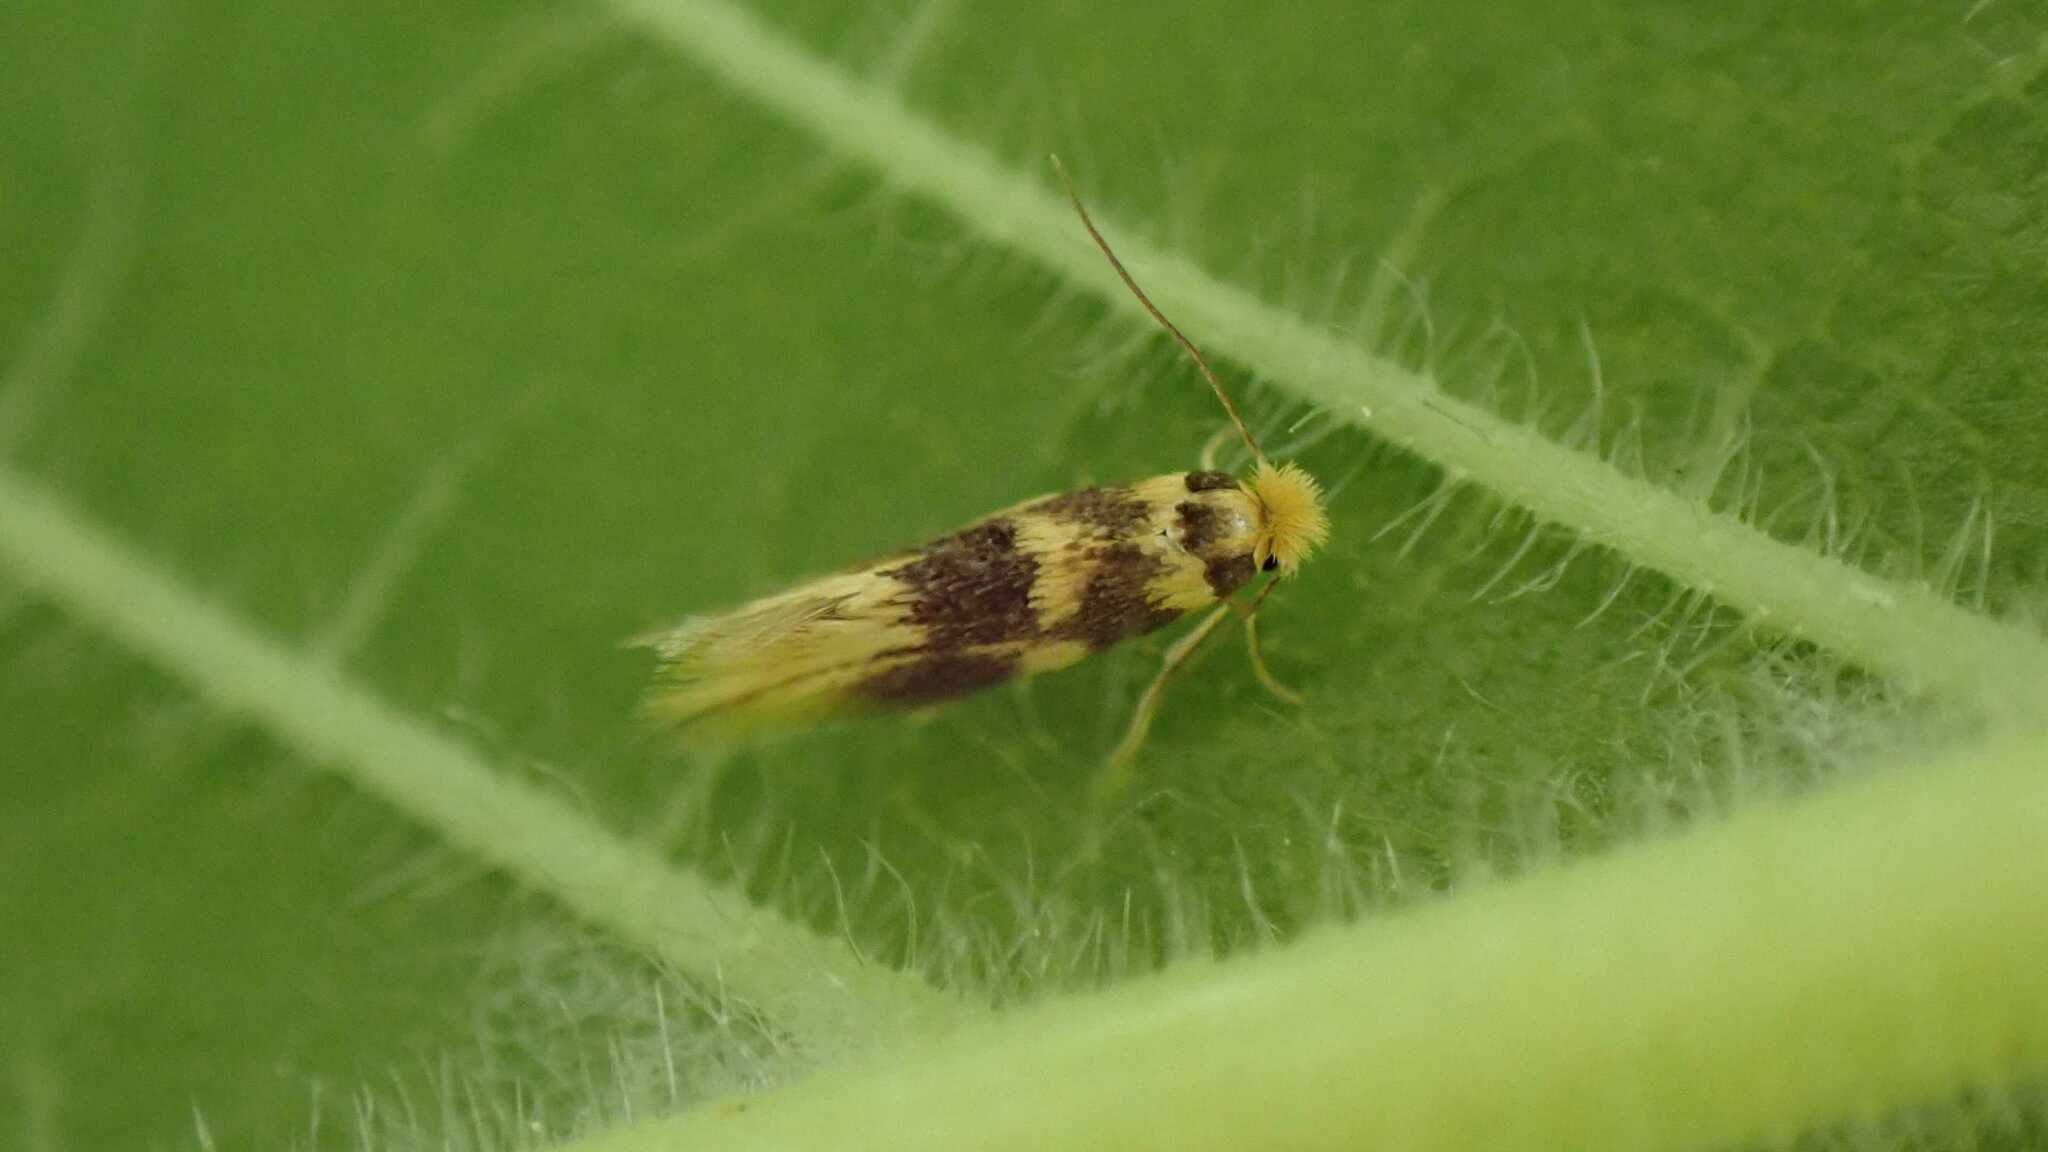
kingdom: Animalia
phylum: Arthropoda
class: Insecta
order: Lepidoptera
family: Bucculatricidae
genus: Bucculatrix
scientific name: Bucculatrix thoracella
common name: Lime bent-wing
